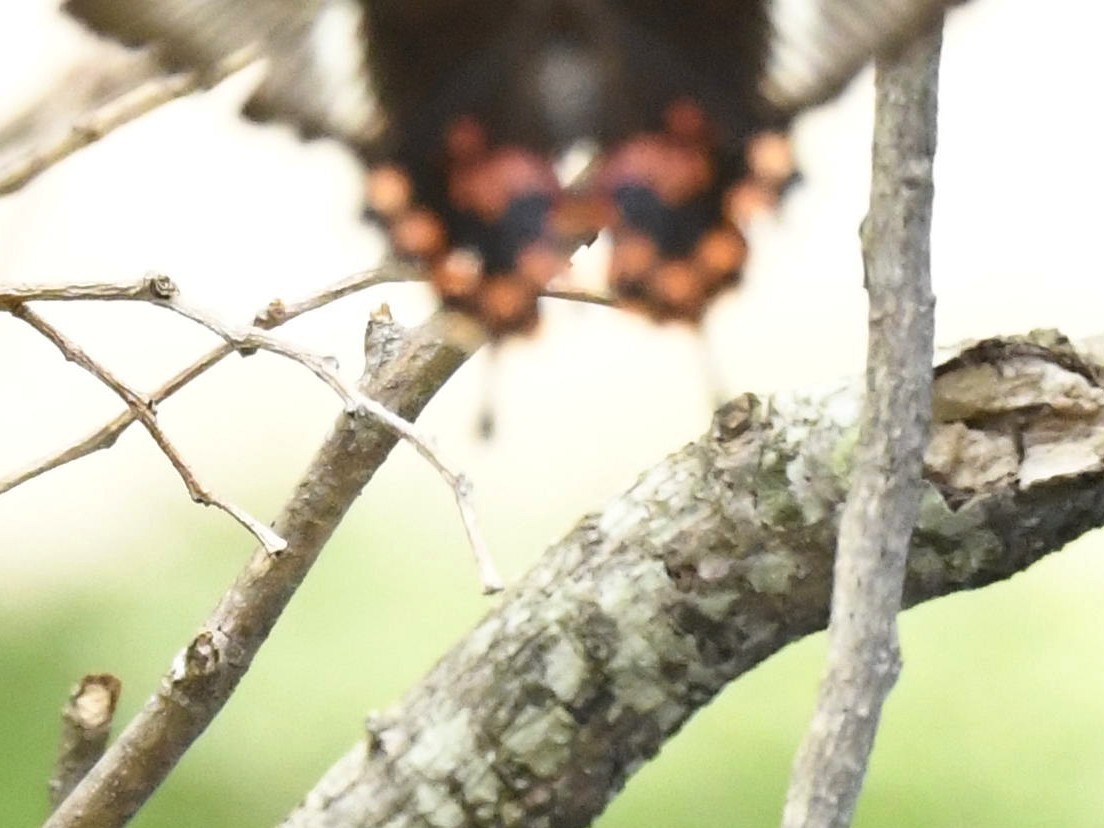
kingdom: Animalia
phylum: Arthropoda
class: Insecta
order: Lepidoptera
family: Papilionidae
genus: Papilio
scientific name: Papilio polytes
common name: Common mormon
